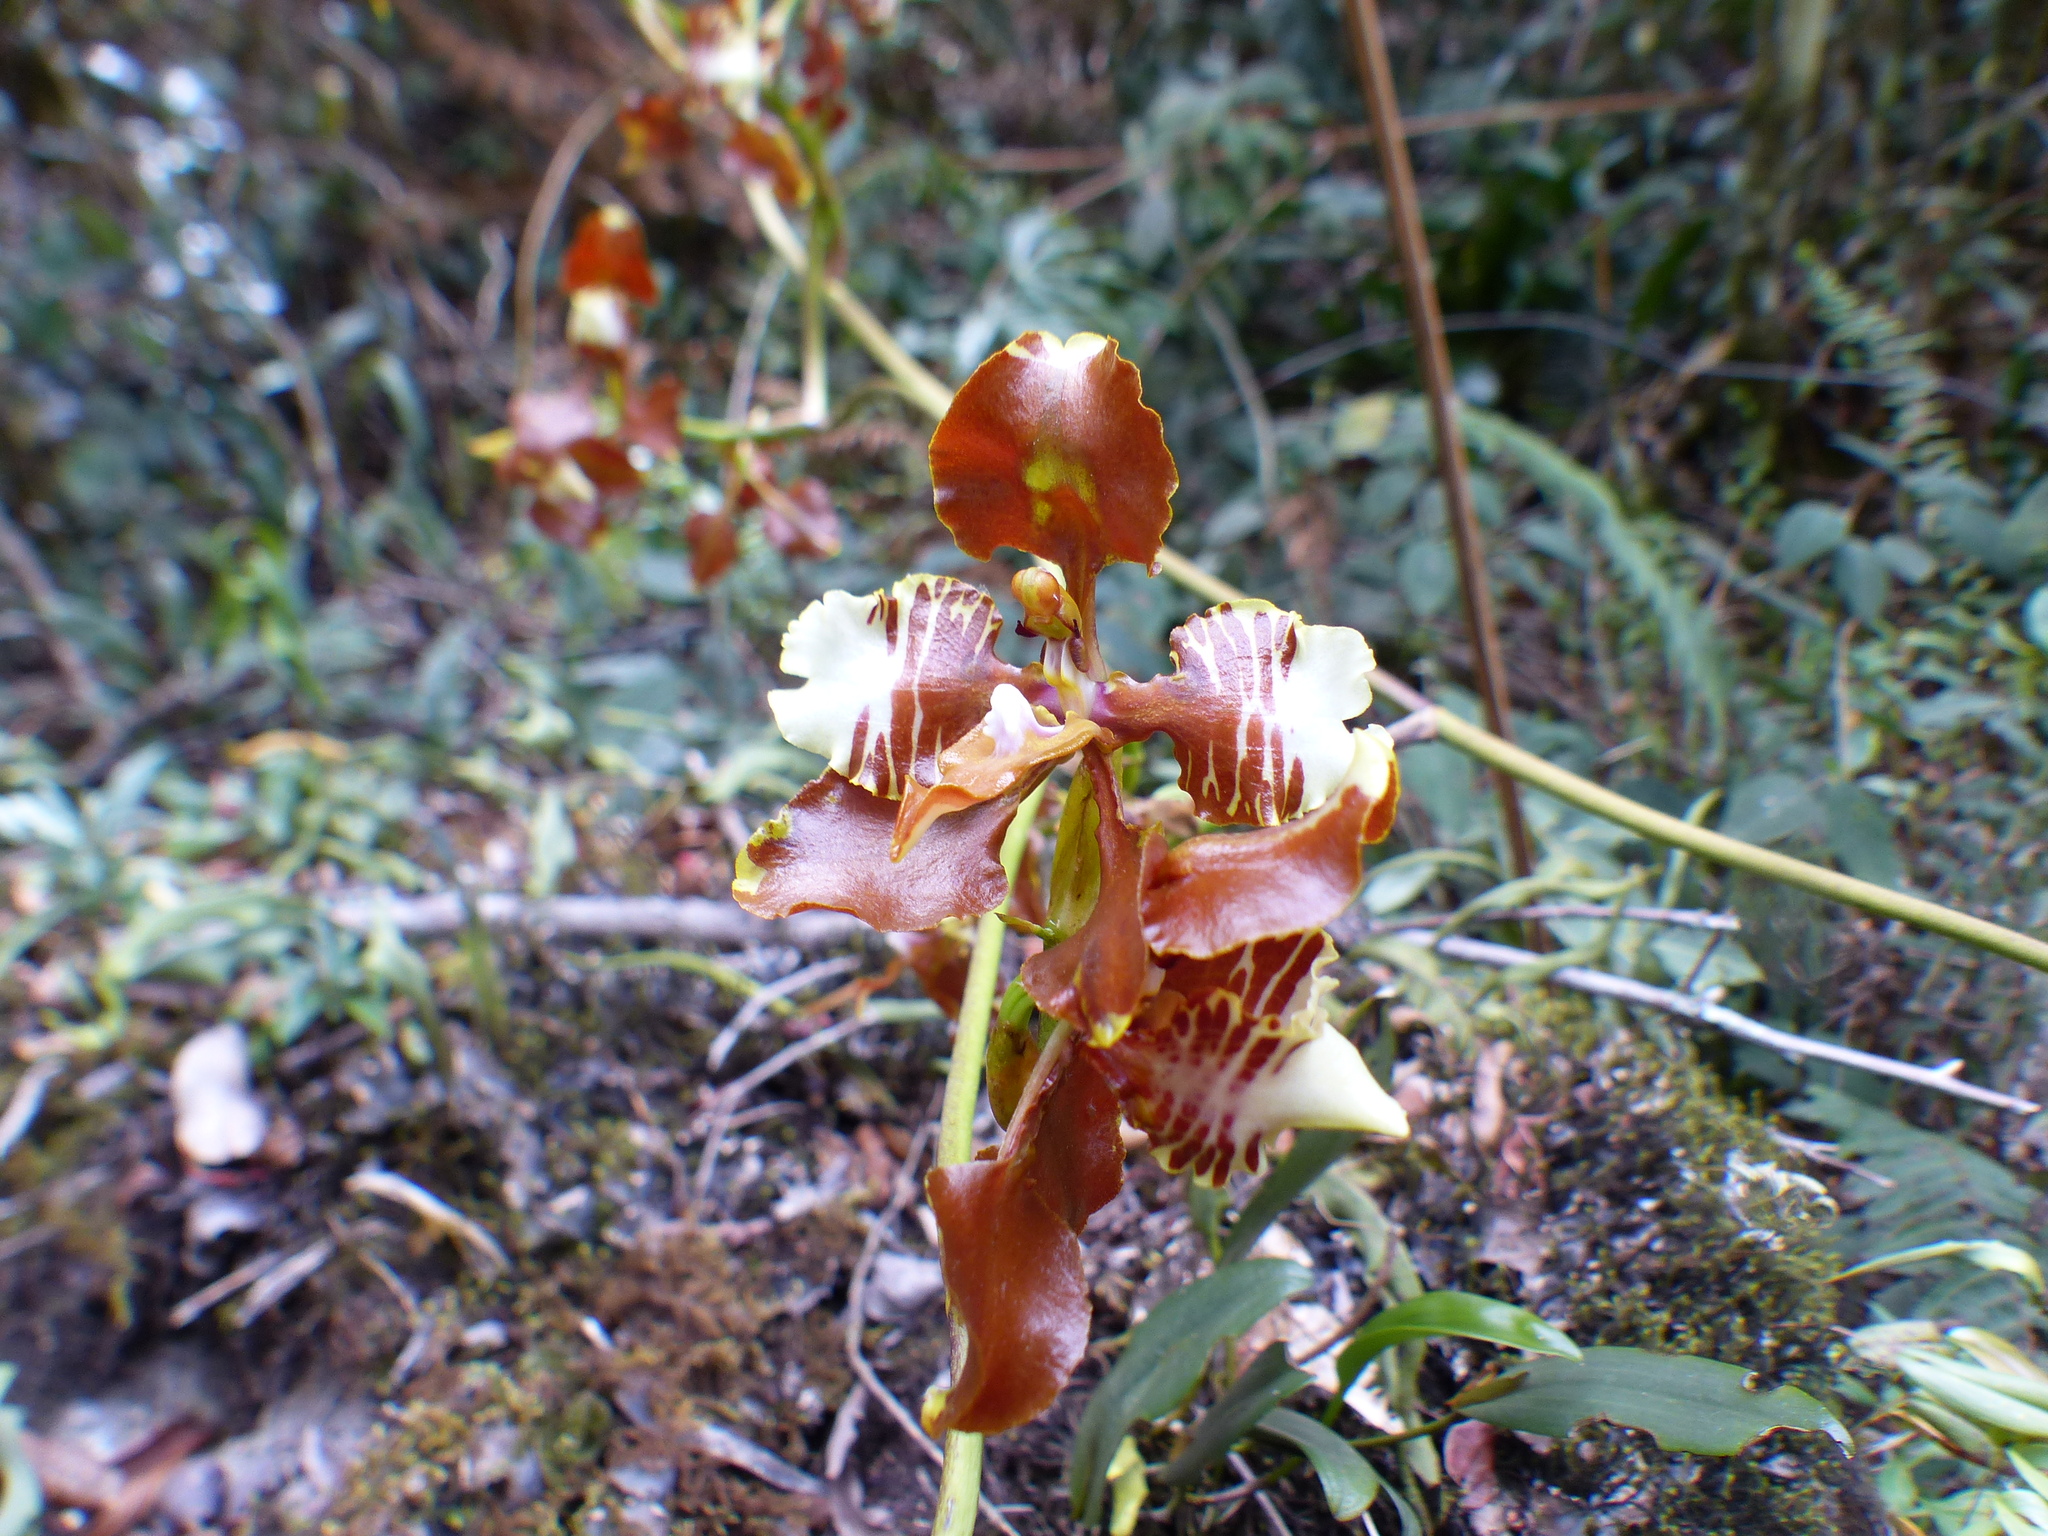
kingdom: Plantae
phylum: Tracheophyta
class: Liliopsida
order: Asparagales
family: Orchidaceae
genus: Cyrtochilum
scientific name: Cyrtochilum halteratum
